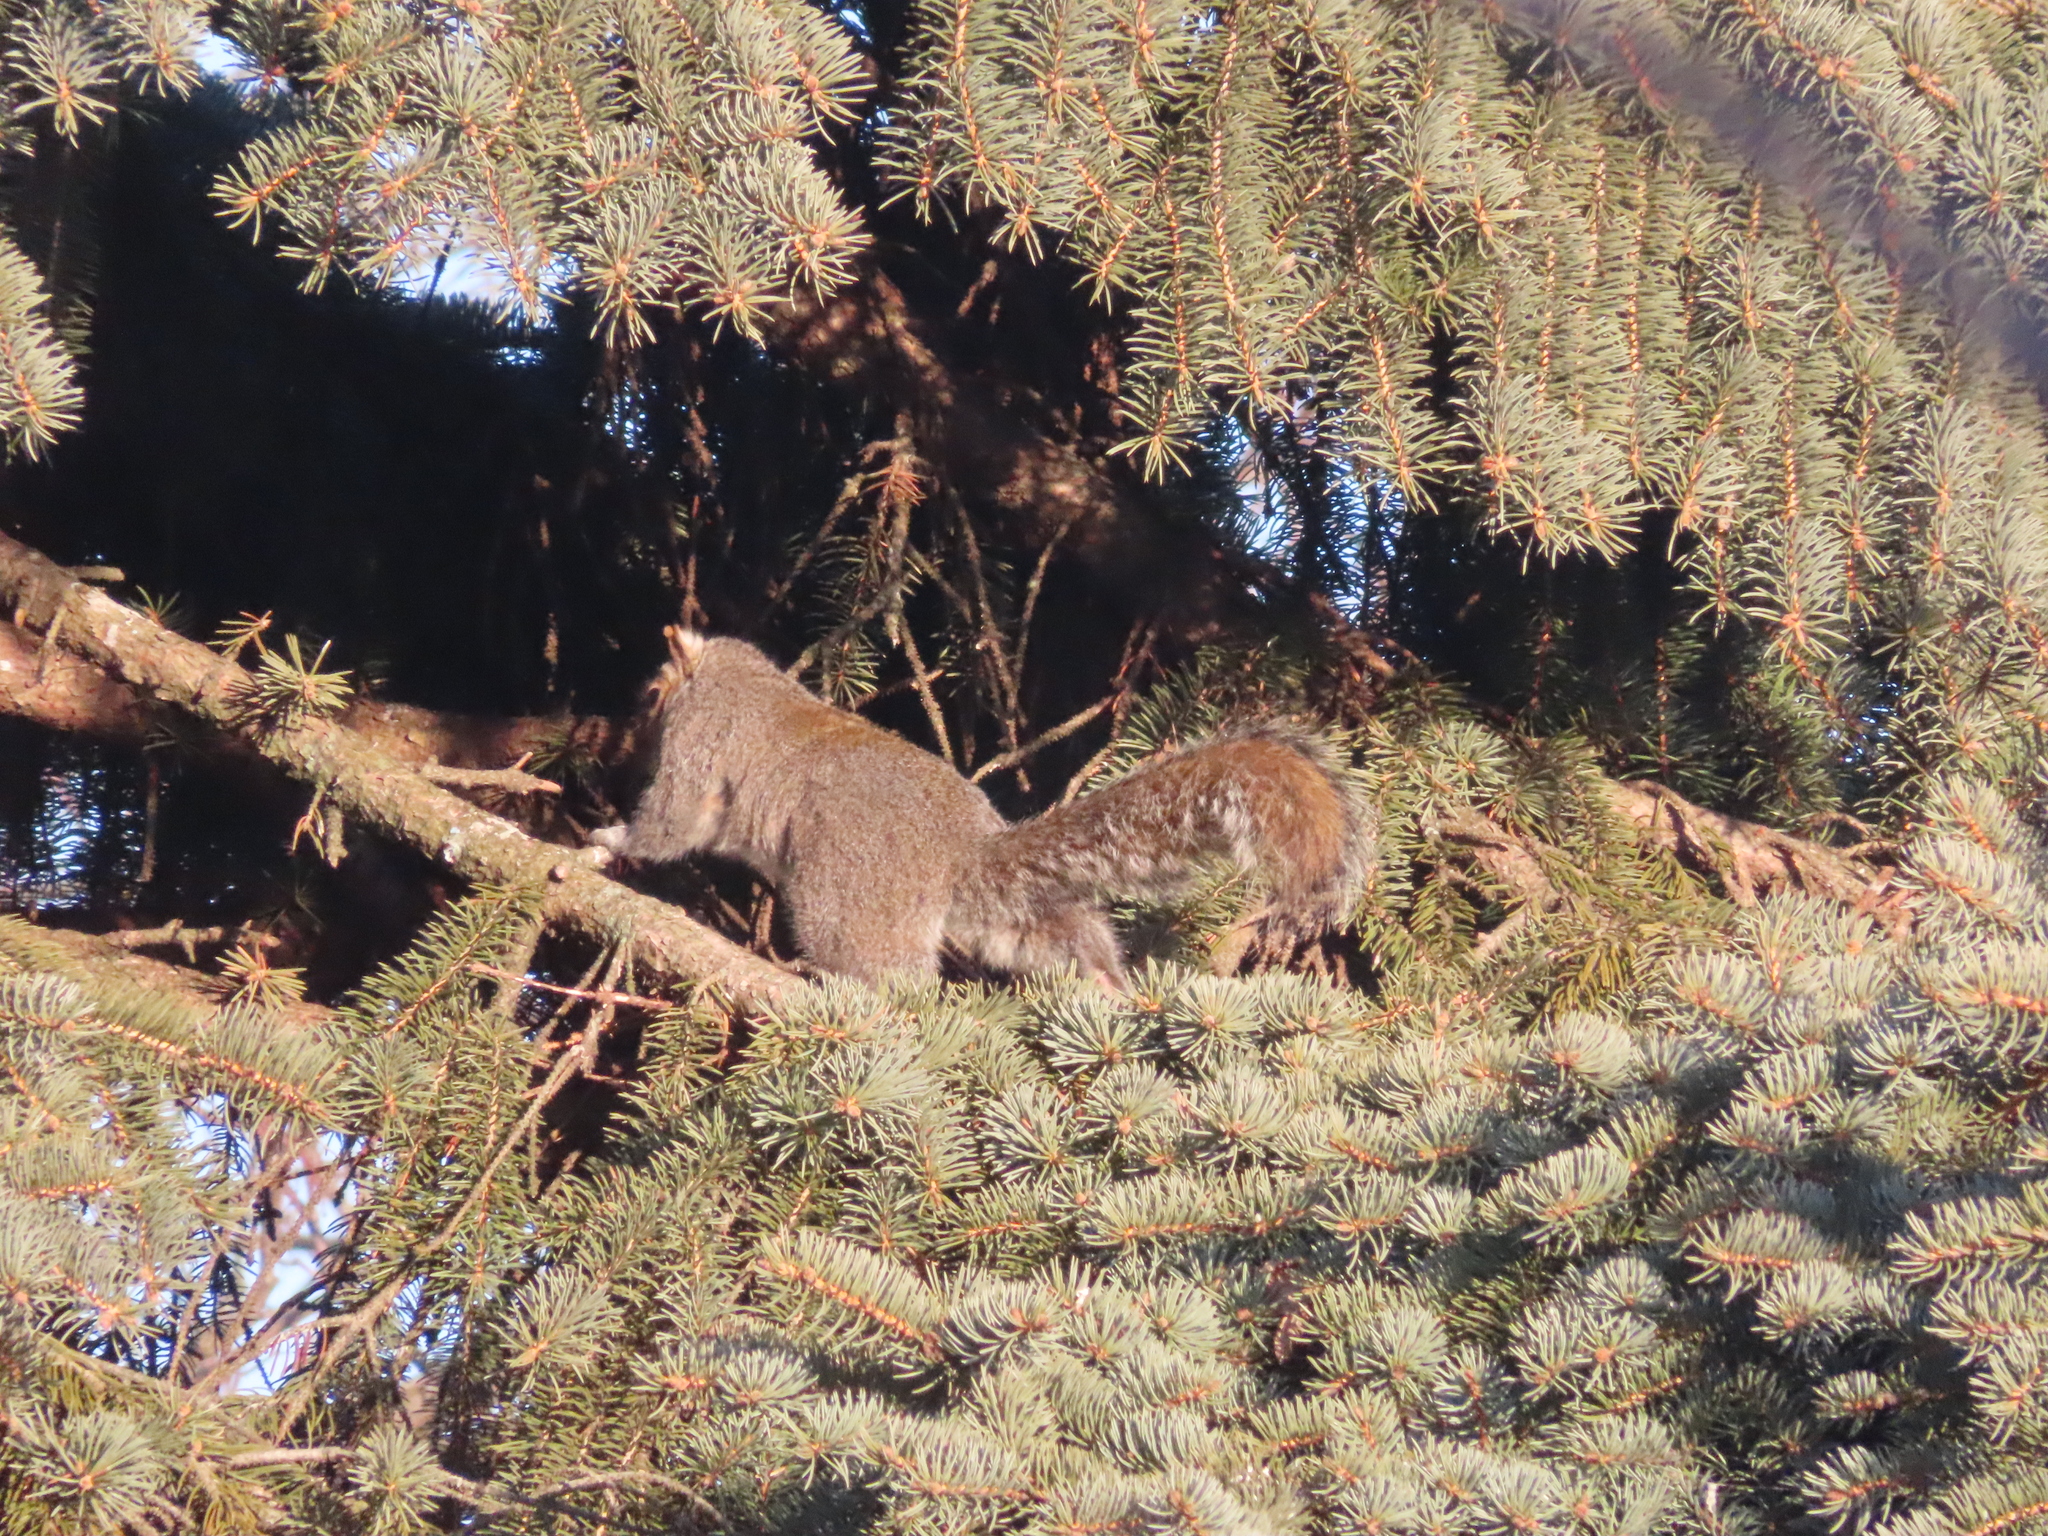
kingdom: Animalia
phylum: Chordata
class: Mammalia
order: Rodentia
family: Sciuridae
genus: Sciurus
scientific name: Sciurus carolinensis
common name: Eastern gray squirrel
